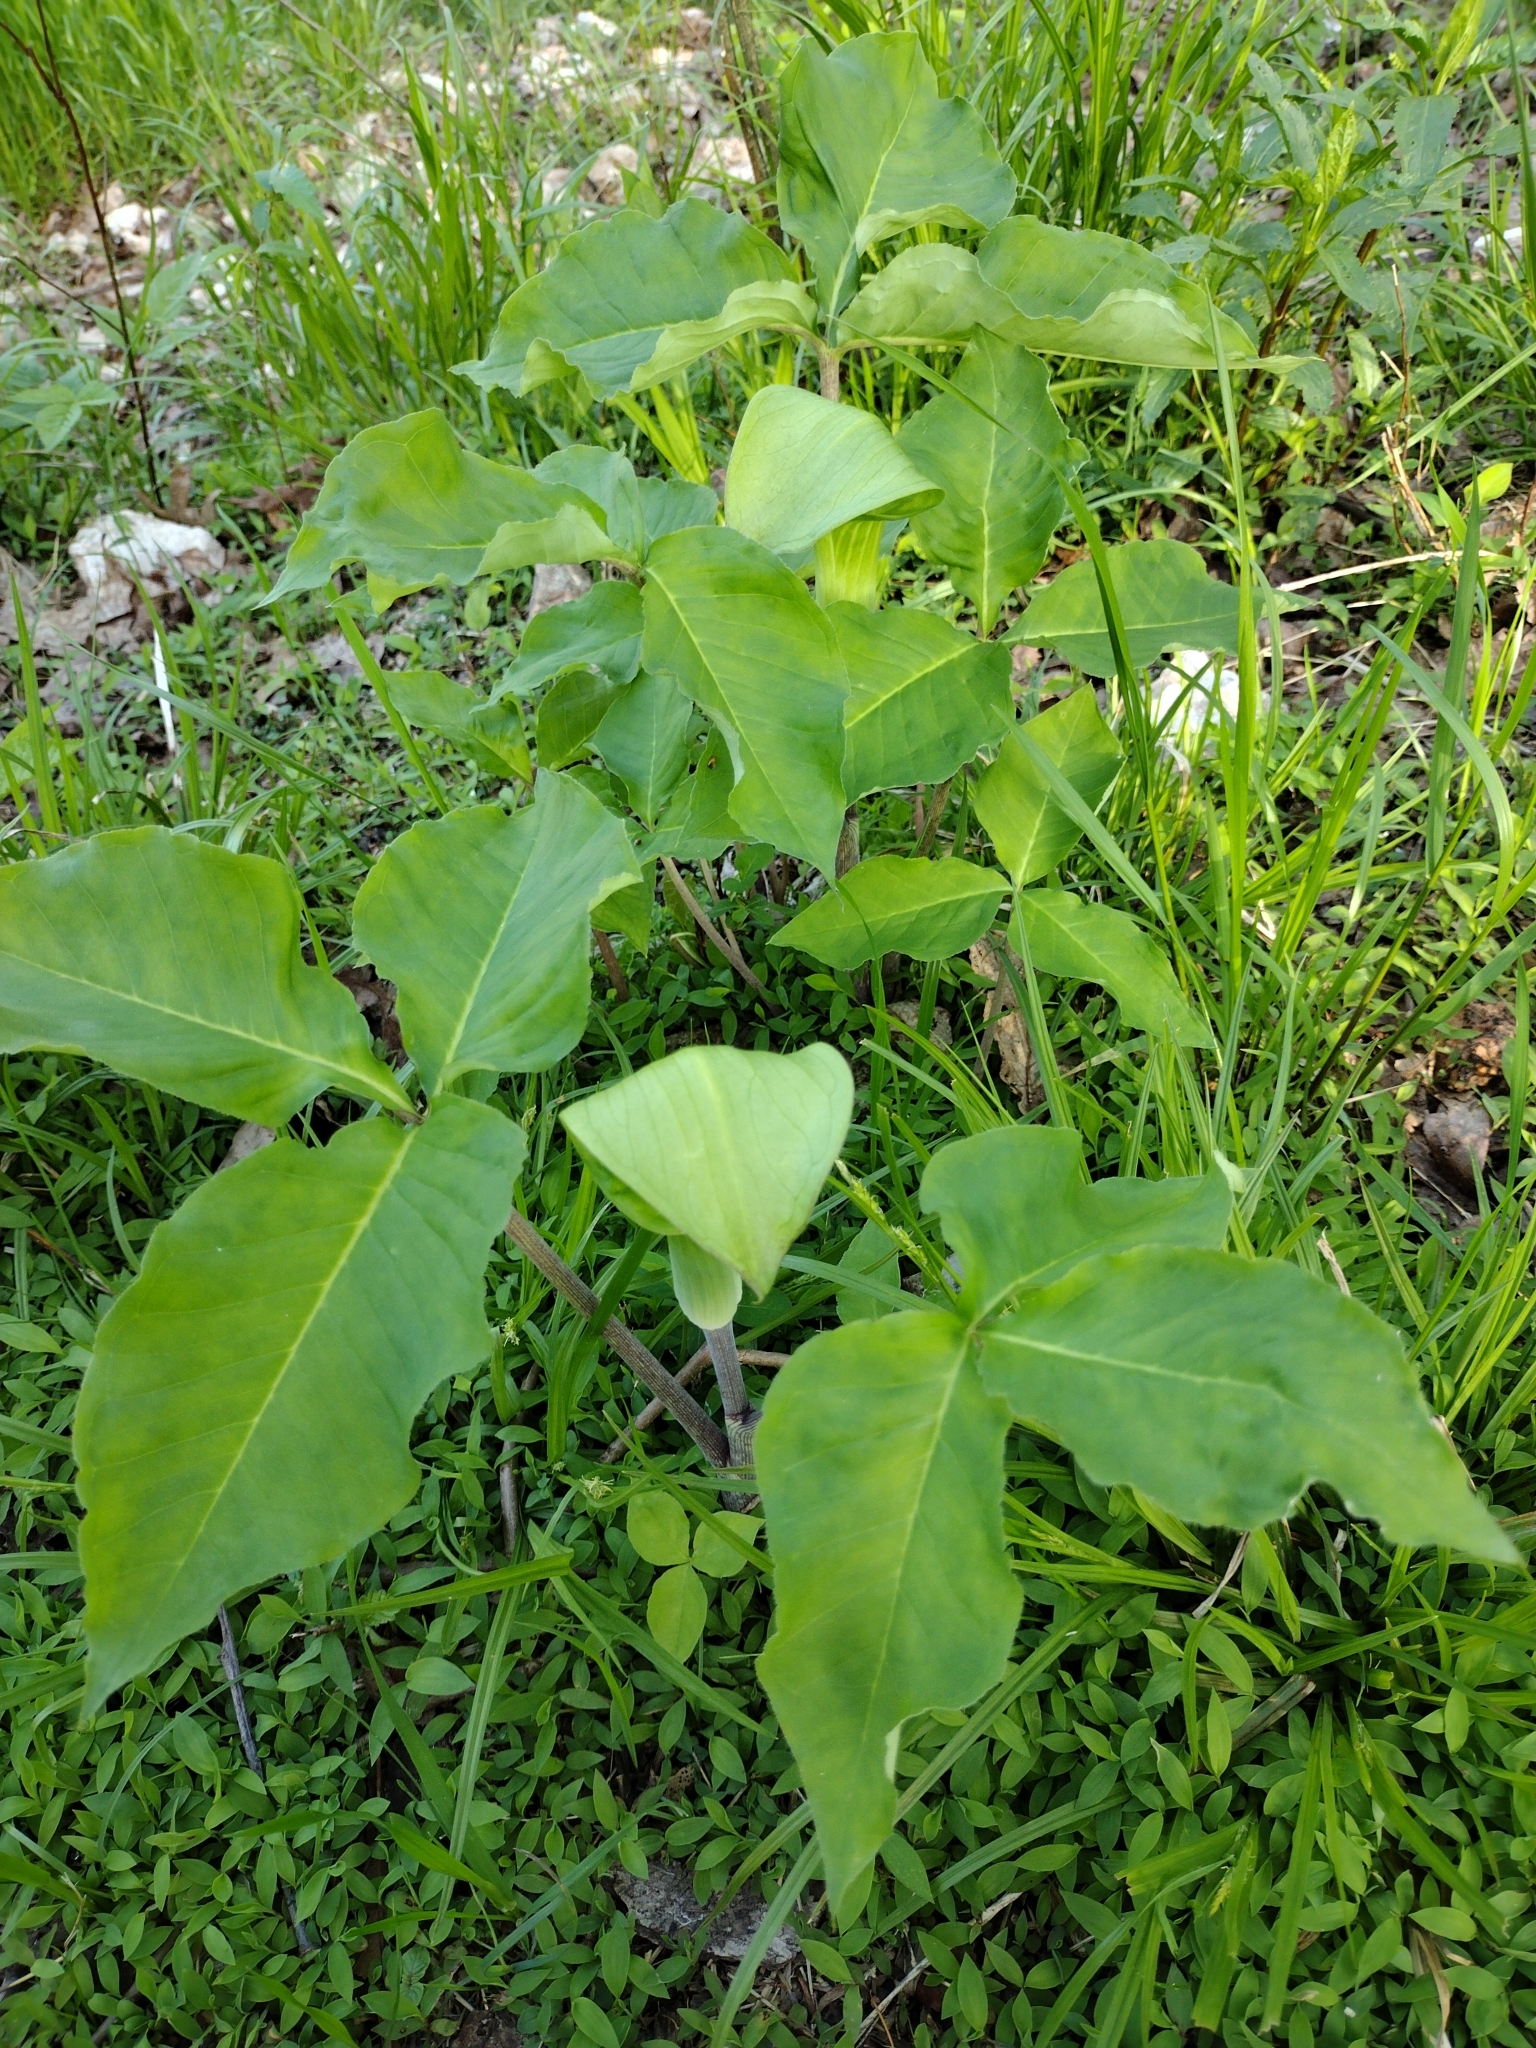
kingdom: Plantae
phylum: Tracheophyta
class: Liliopsida
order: Alismatales
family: Araceae
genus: Arisaema
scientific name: Arisaema triphyllum
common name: Jack-in-the-pulpit
